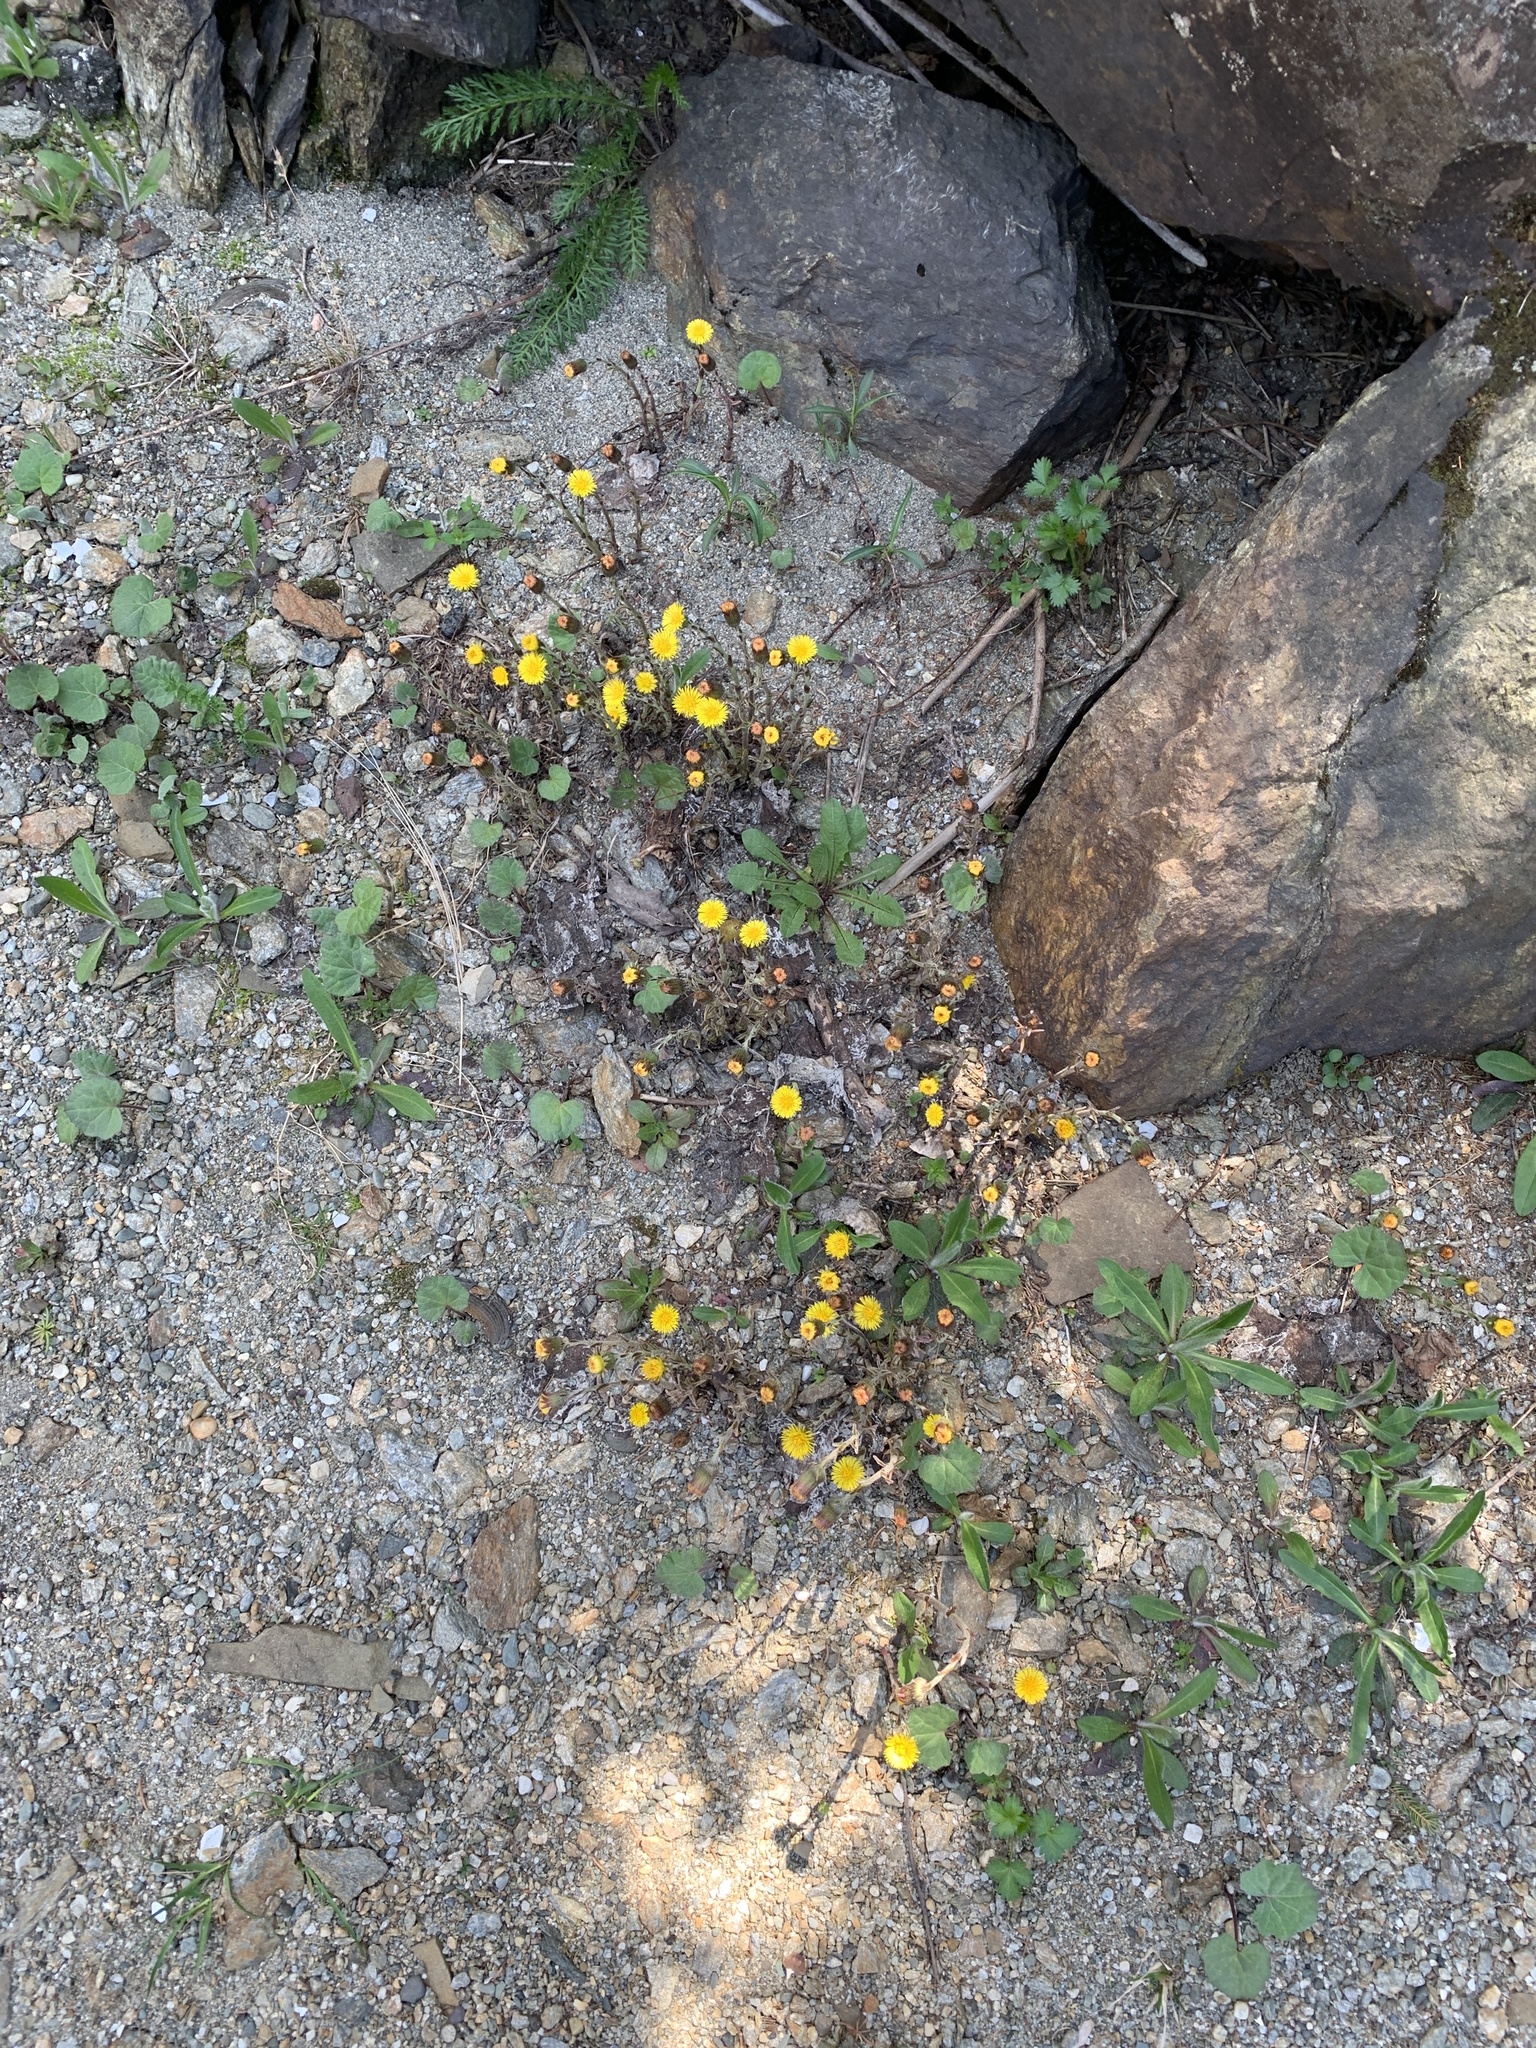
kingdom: Plantae
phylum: Tracheophyta
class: Magnoliopsida
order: Asterales
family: Asteraceae
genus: Tussilago
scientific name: Tussilago farfara
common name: Coltsfoot
